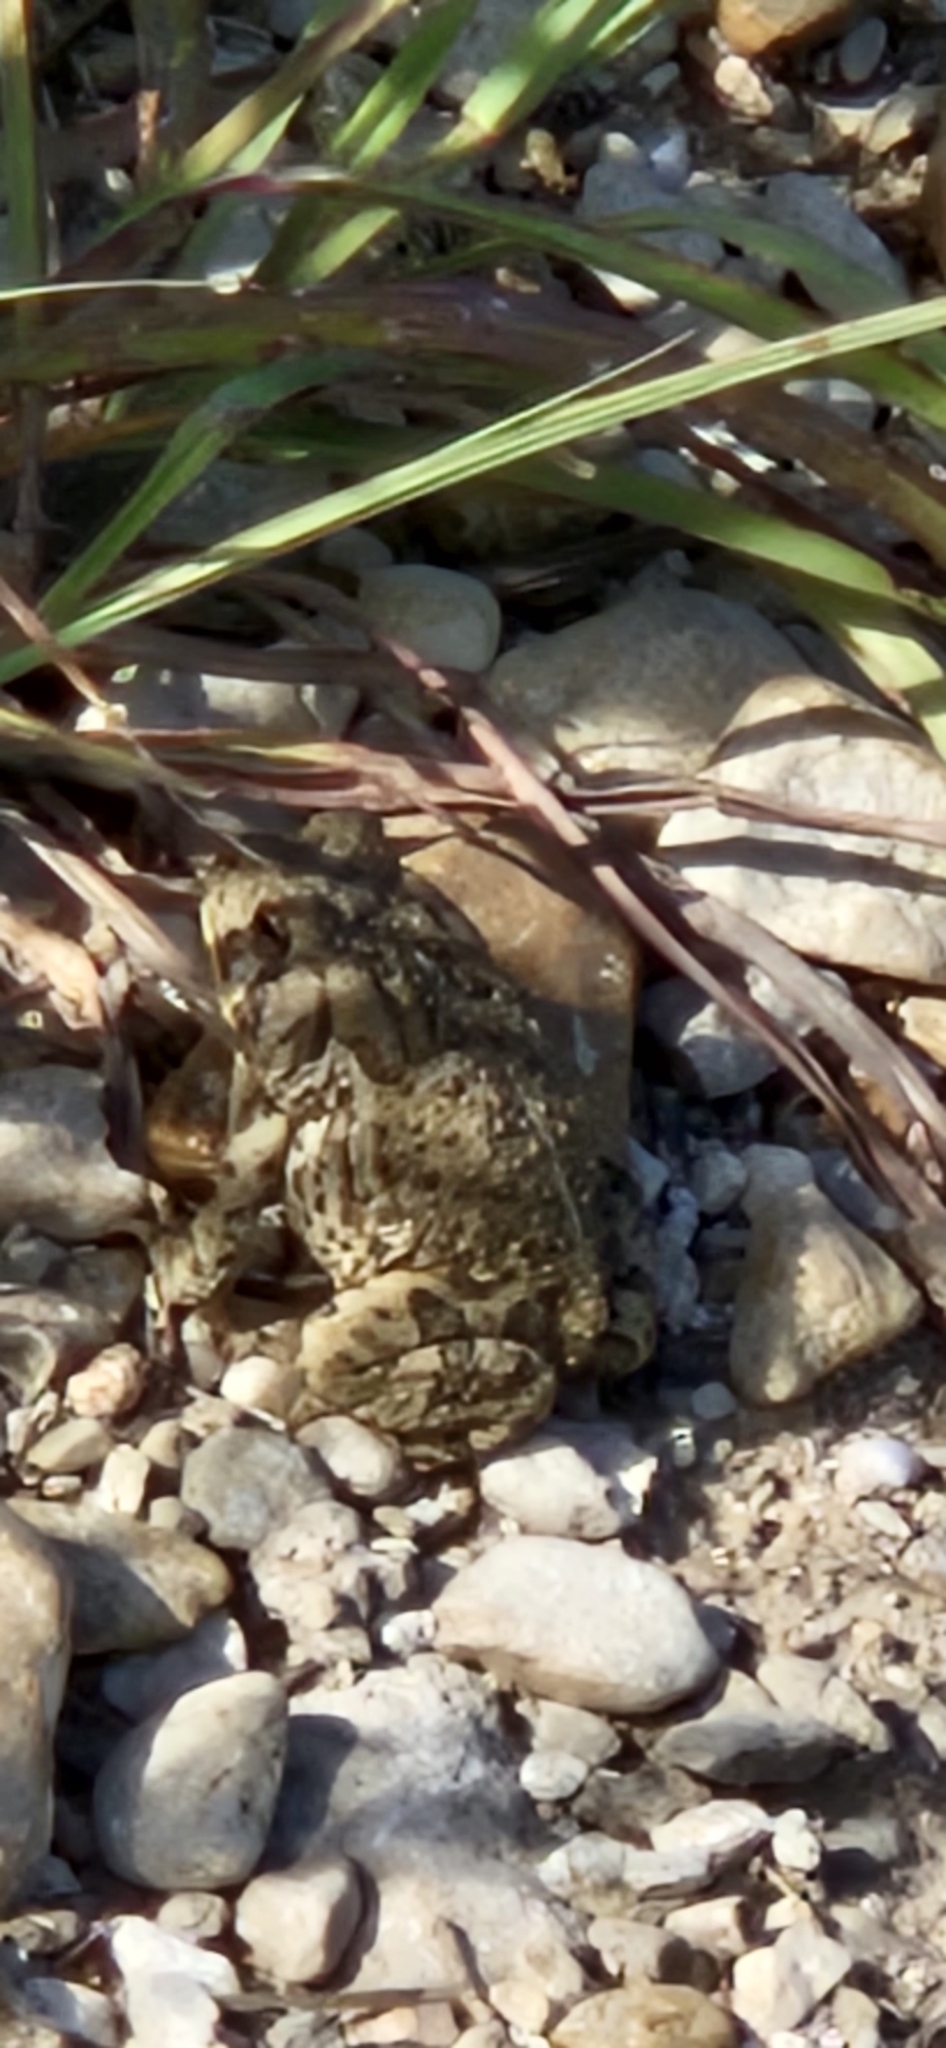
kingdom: Animalia
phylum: Chordata
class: Amphibia
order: Anura
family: Bufonidae
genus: Anaxyrus
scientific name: Anaxyrus woodhousii
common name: Woodhouse's toad
